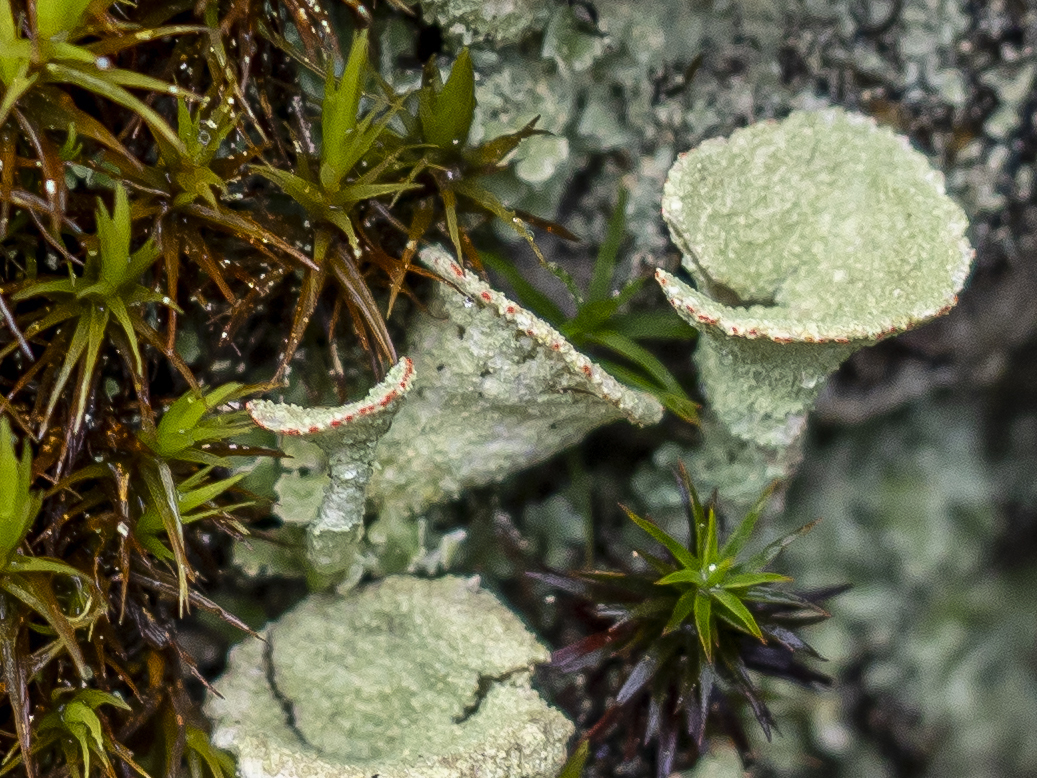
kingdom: Fungi
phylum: Ascomycota
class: Lecanoromycetes
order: Lecanorales
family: Cladoniaceae
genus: Cladonia
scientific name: Cladonia pleurota
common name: Red-fruited pixie cup
